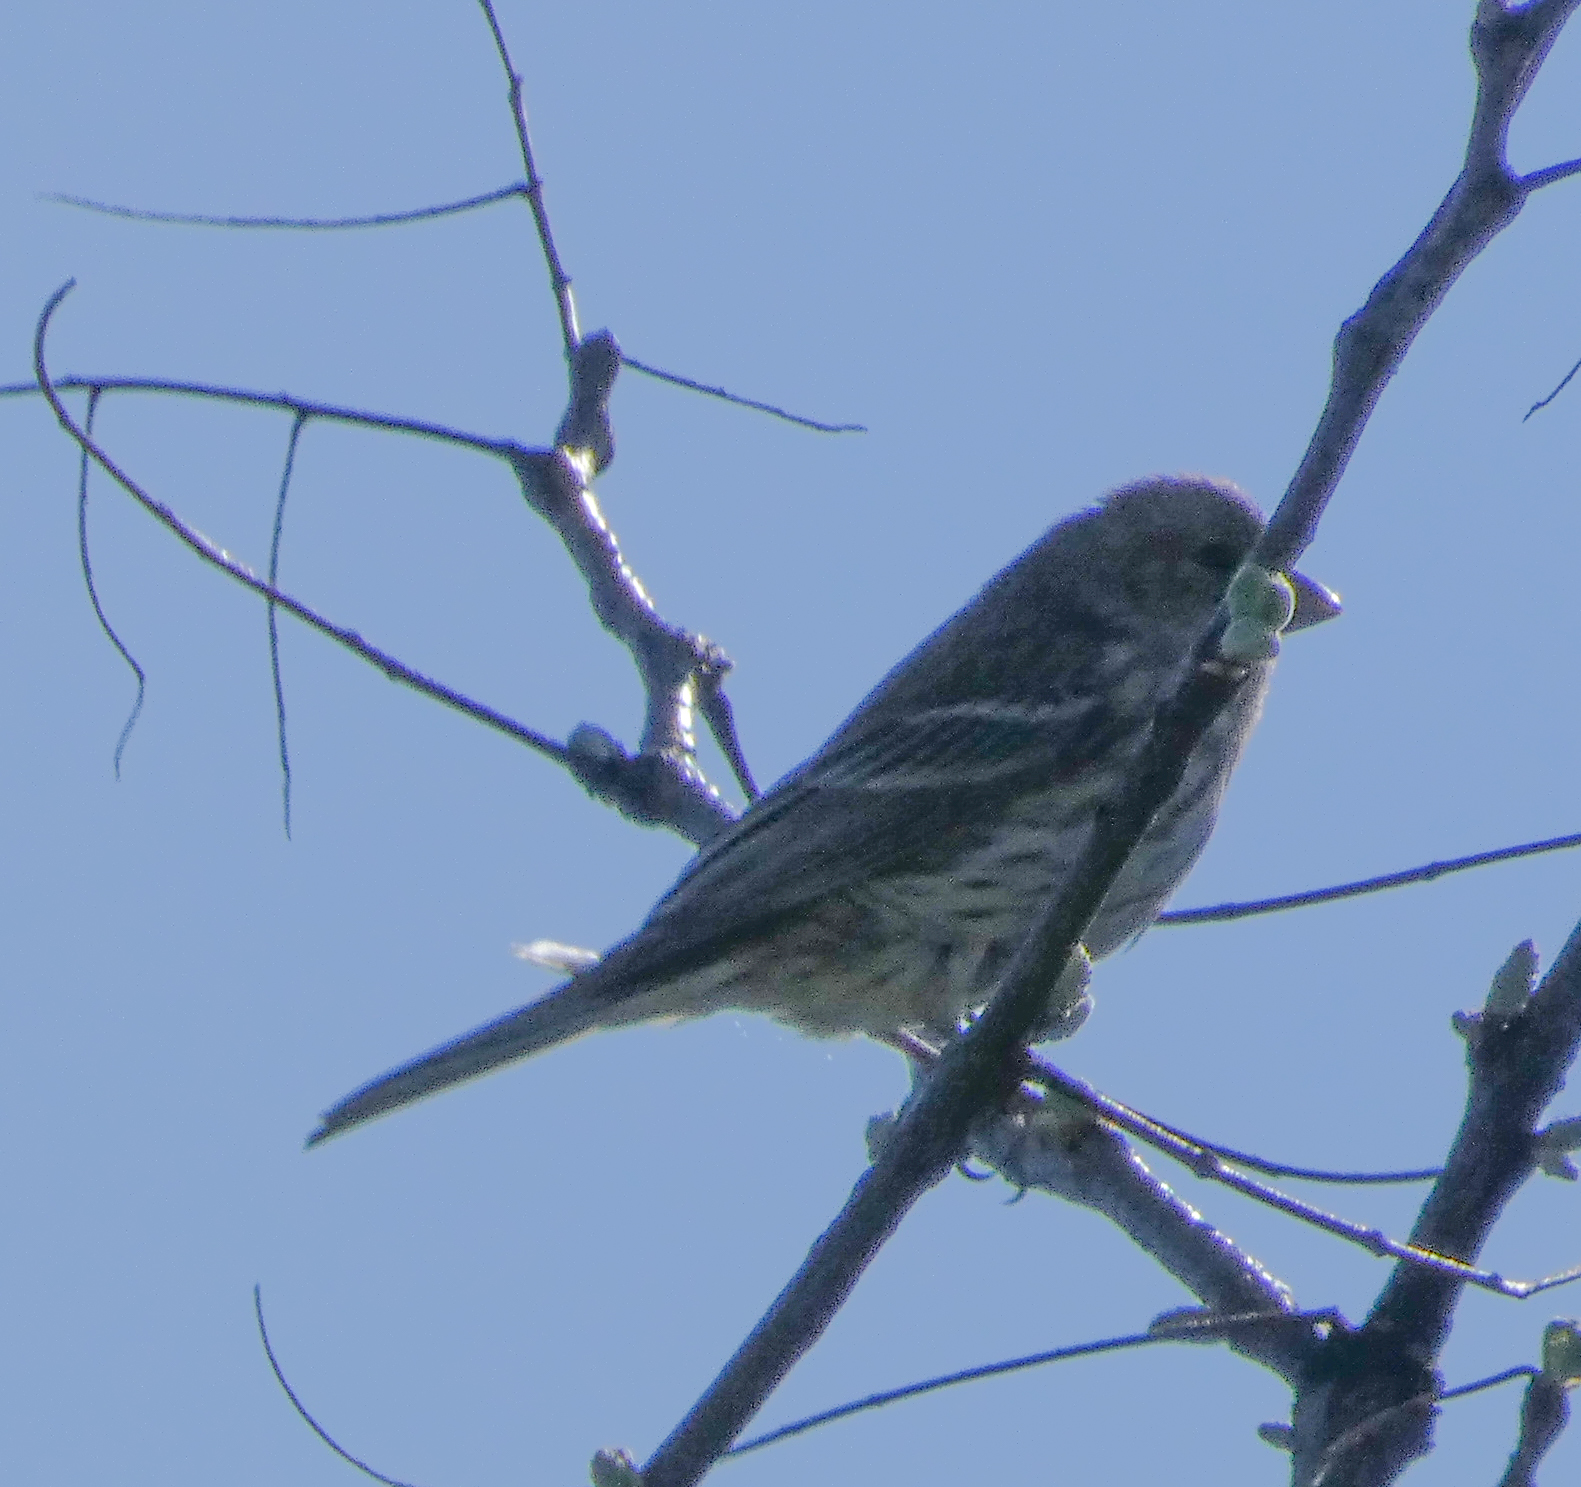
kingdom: Animalia
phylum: Chordata
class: Aves
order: Passeriformes
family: Fringillidae
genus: Haemorhous
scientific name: Haemorhous mexicanus
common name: House finch
